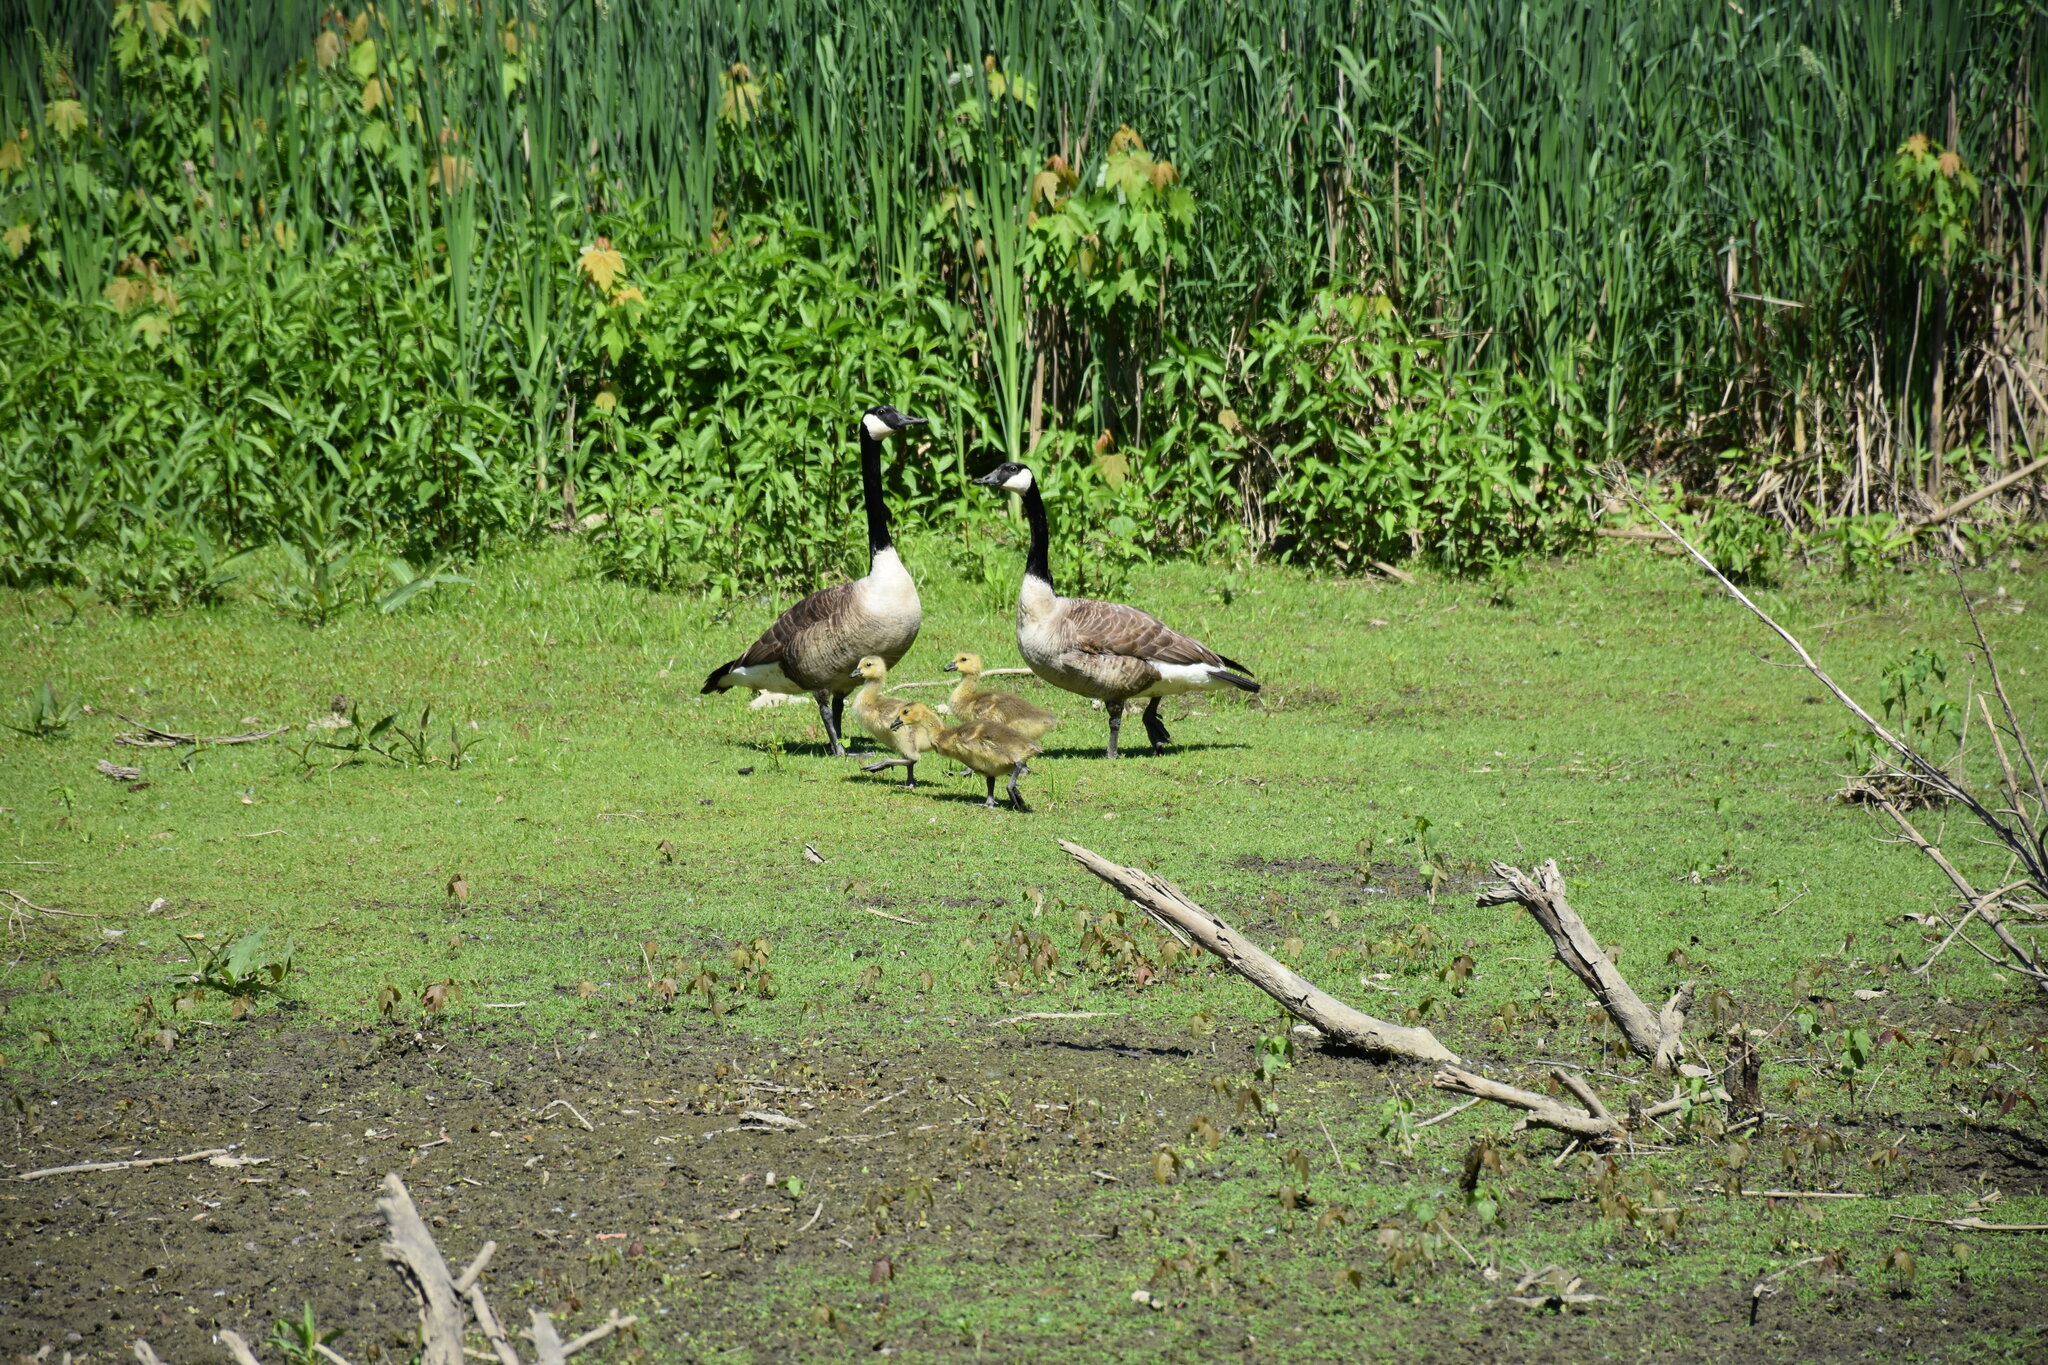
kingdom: Animalia
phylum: Chordata
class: Aves
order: Anseriformes
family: Anatidae
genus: Branta
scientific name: Branta canadensis
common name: Canada goose
